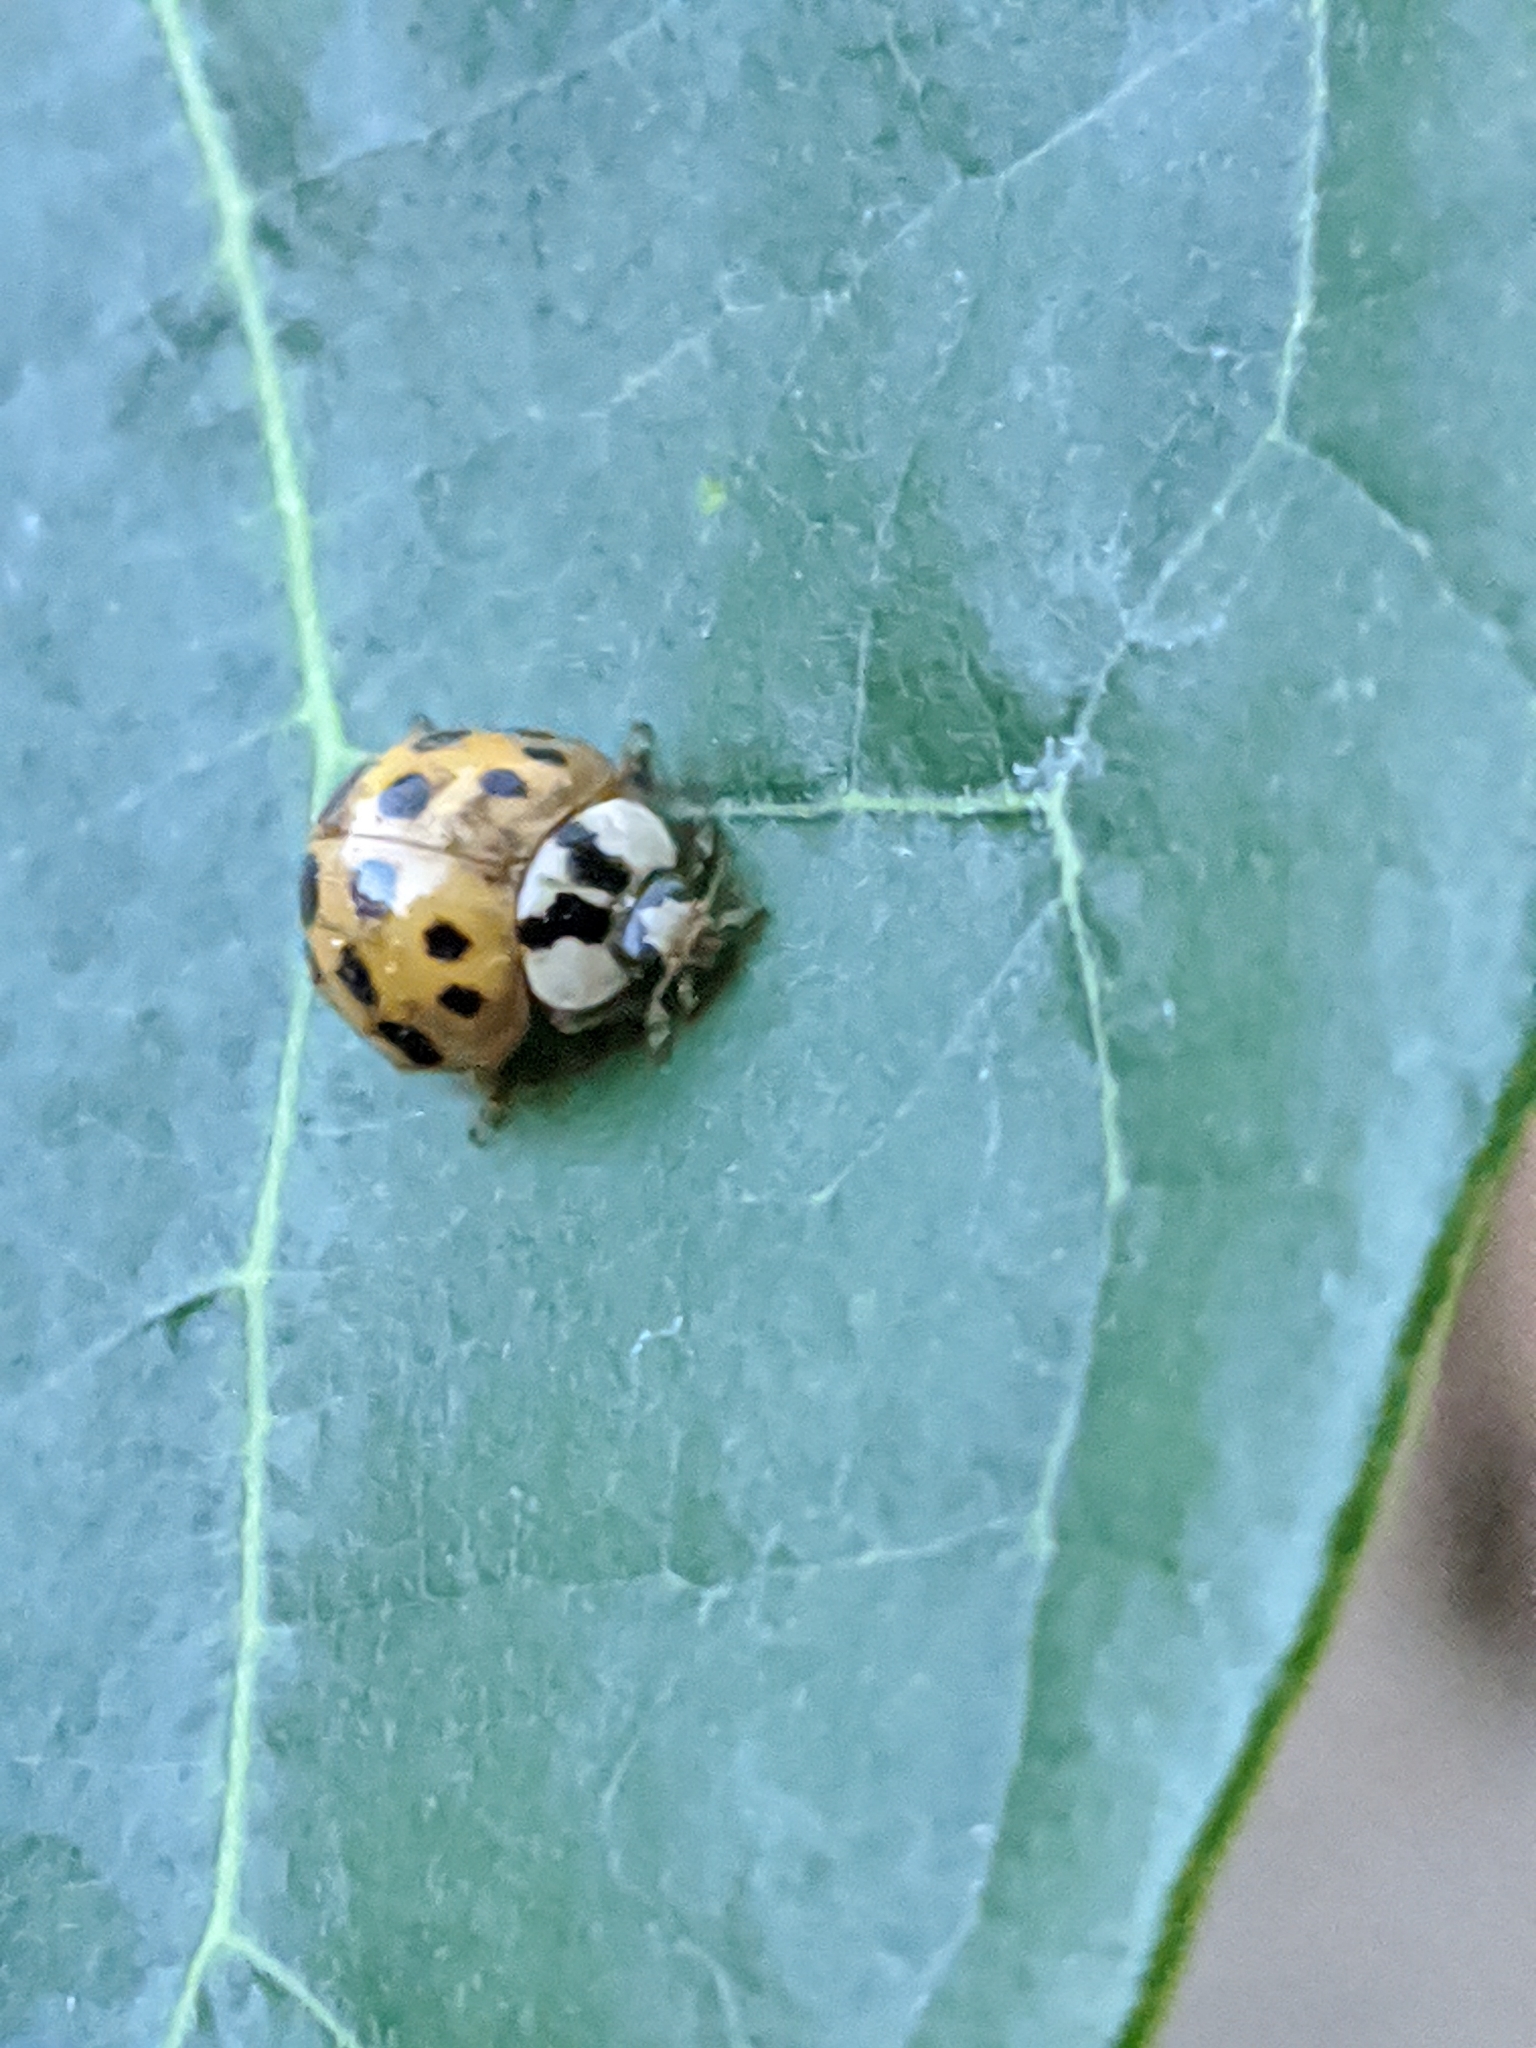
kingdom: Animalia
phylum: Arthropoda
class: Insecta
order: Coleoptera
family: Coccinellidae
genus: Harmonia
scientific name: Harmonia axyridis
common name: Harlequin ladybird
